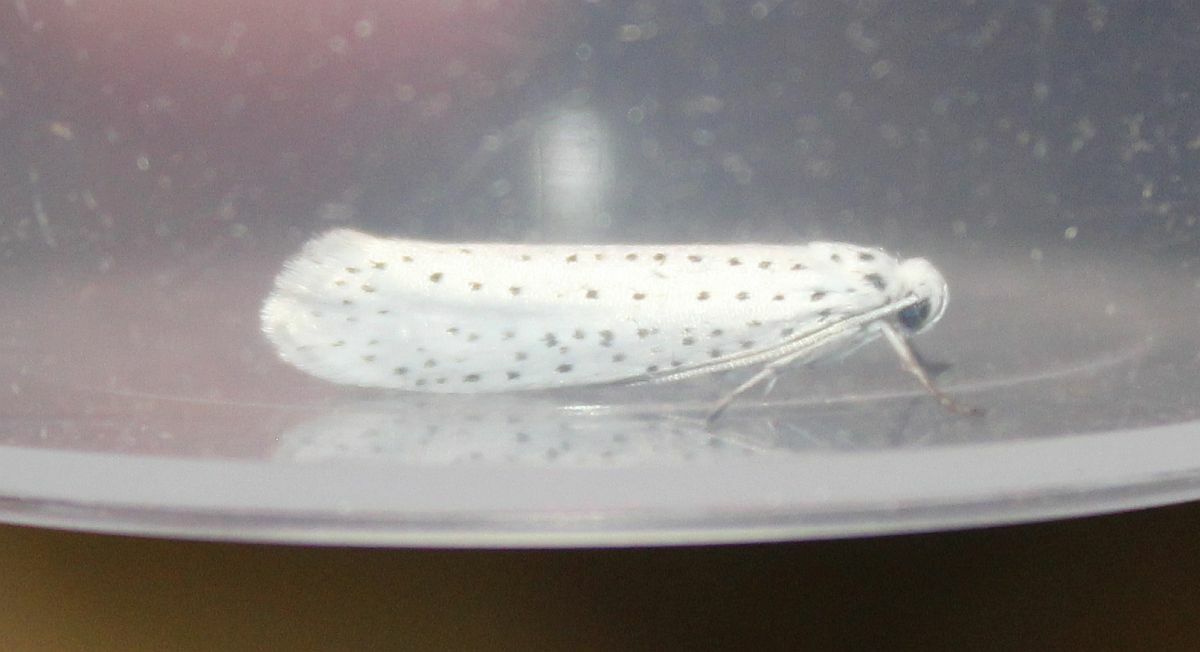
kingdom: Animalia
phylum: Arthropoda
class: Insecta
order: Lepidoptera
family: Yponomeutidae
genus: Yponomeuta
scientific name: Yponomeuta evonymella
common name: Bird-cherry ermine
